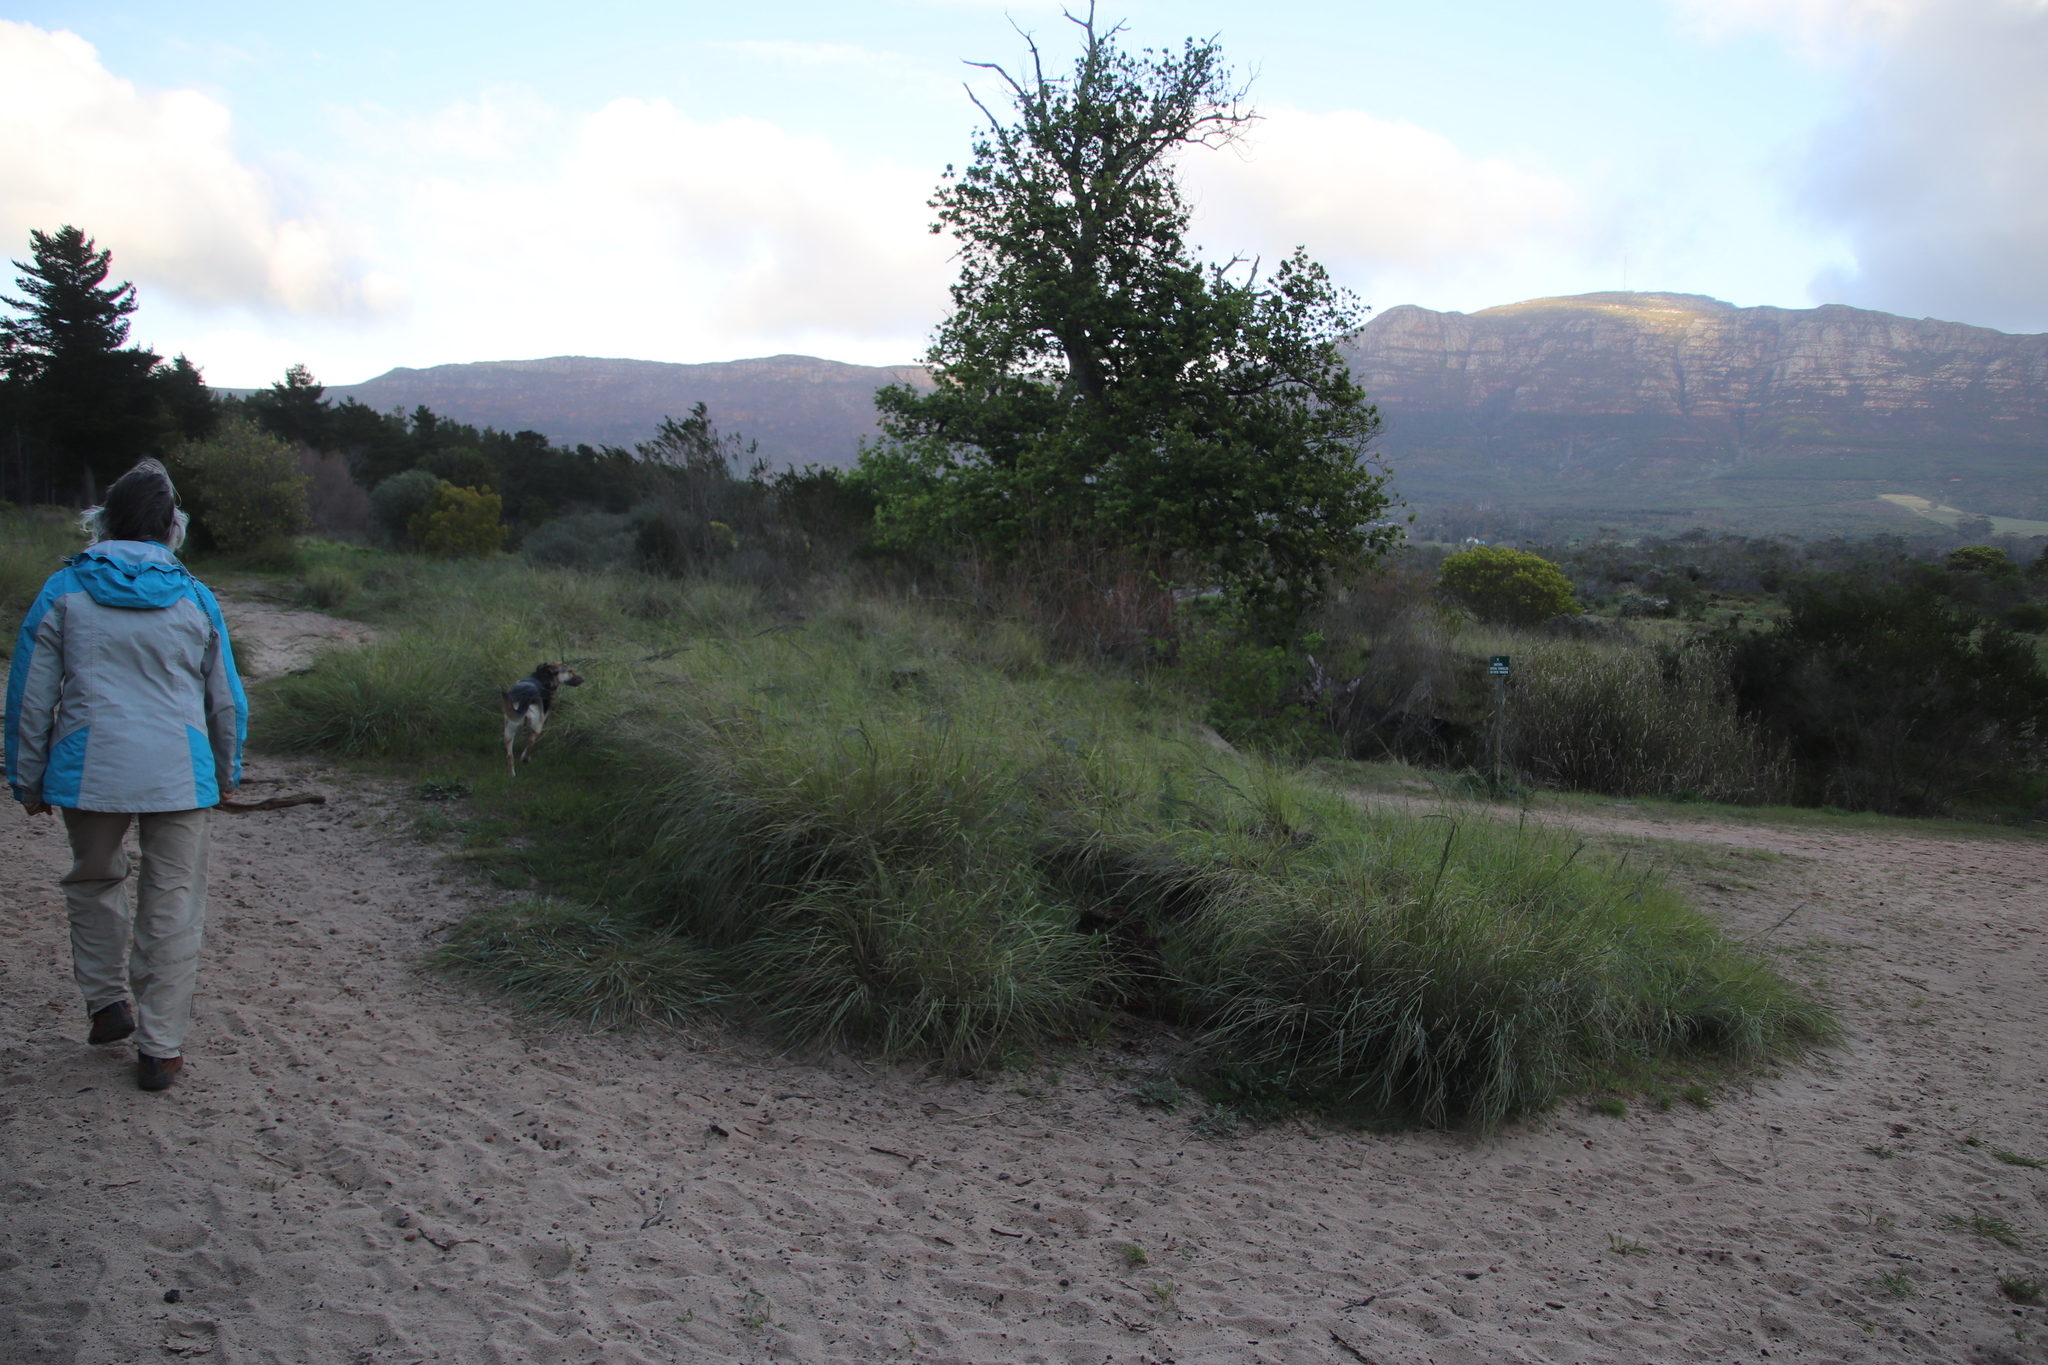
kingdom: Plantae
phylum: Tracheophyta
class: Liliopsida
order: Poales
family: Poaceae
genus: Eragrostis
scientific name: Eragrostis curvula
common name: African love-grass
